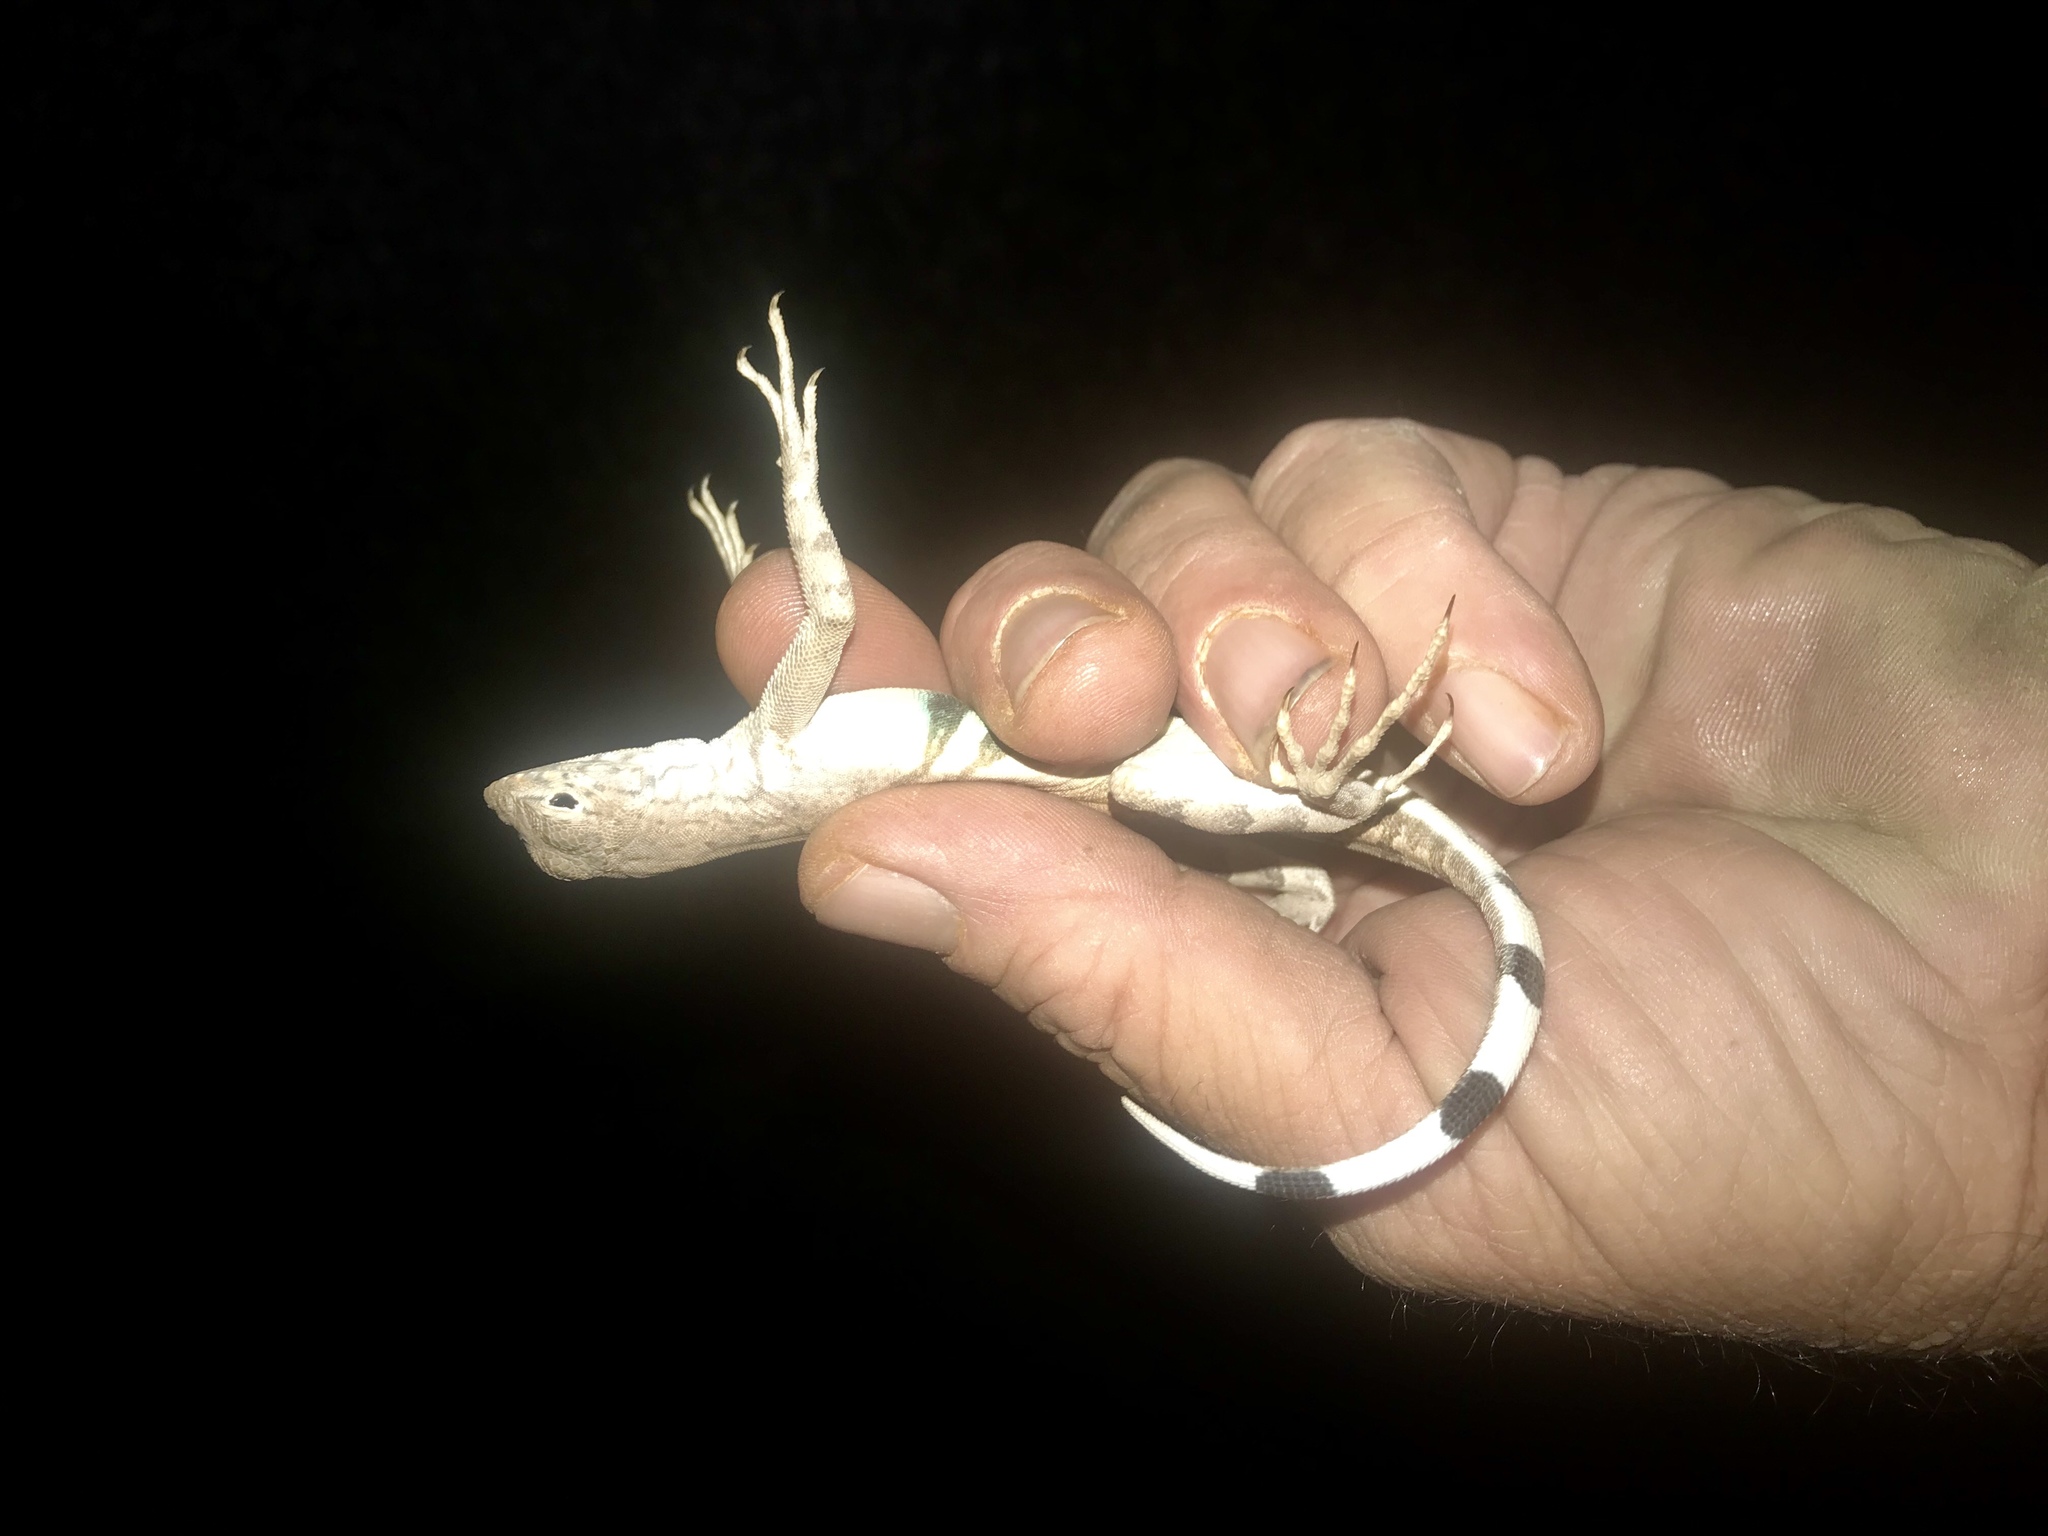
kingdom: Animalia
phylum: Chordata
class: Squamata
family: Phrynosomatidae
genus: Callisaurus
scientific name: Callisaurus draconoides
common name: Zebra-tailed lizard
